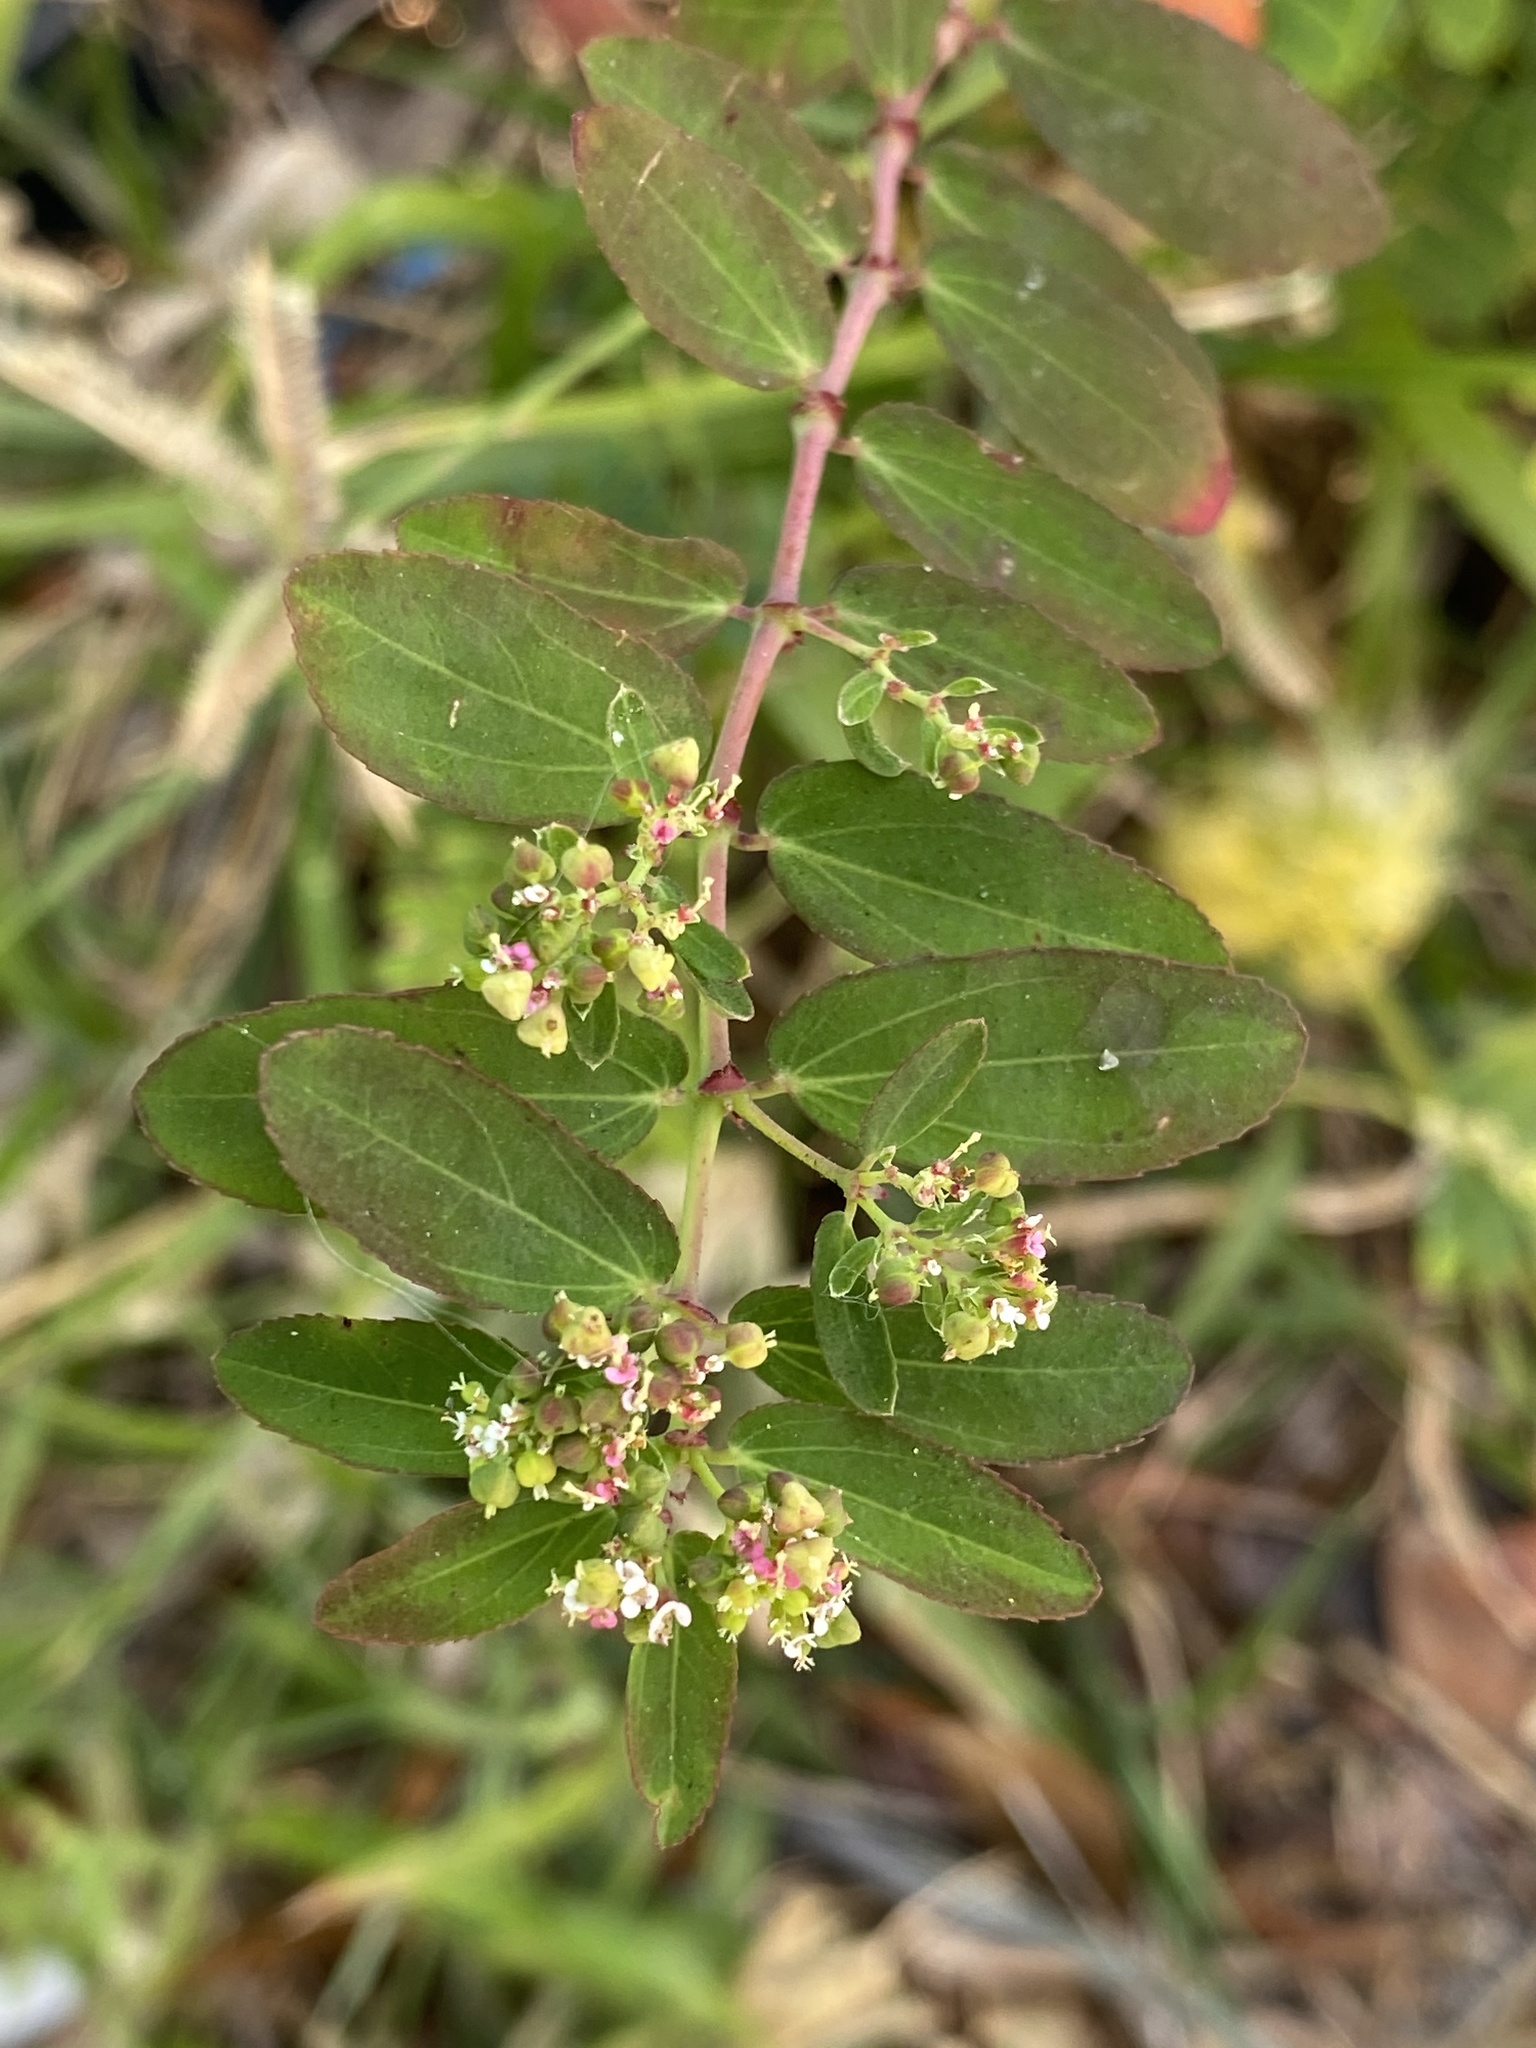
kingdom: Plantae
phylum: Tracheophyta
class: Magnoliopsida
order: Malpighiales
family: Euphorbiaceae
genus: Euphorbia
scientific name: Euphorbia hypericifolia
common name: Graceful sandmat
